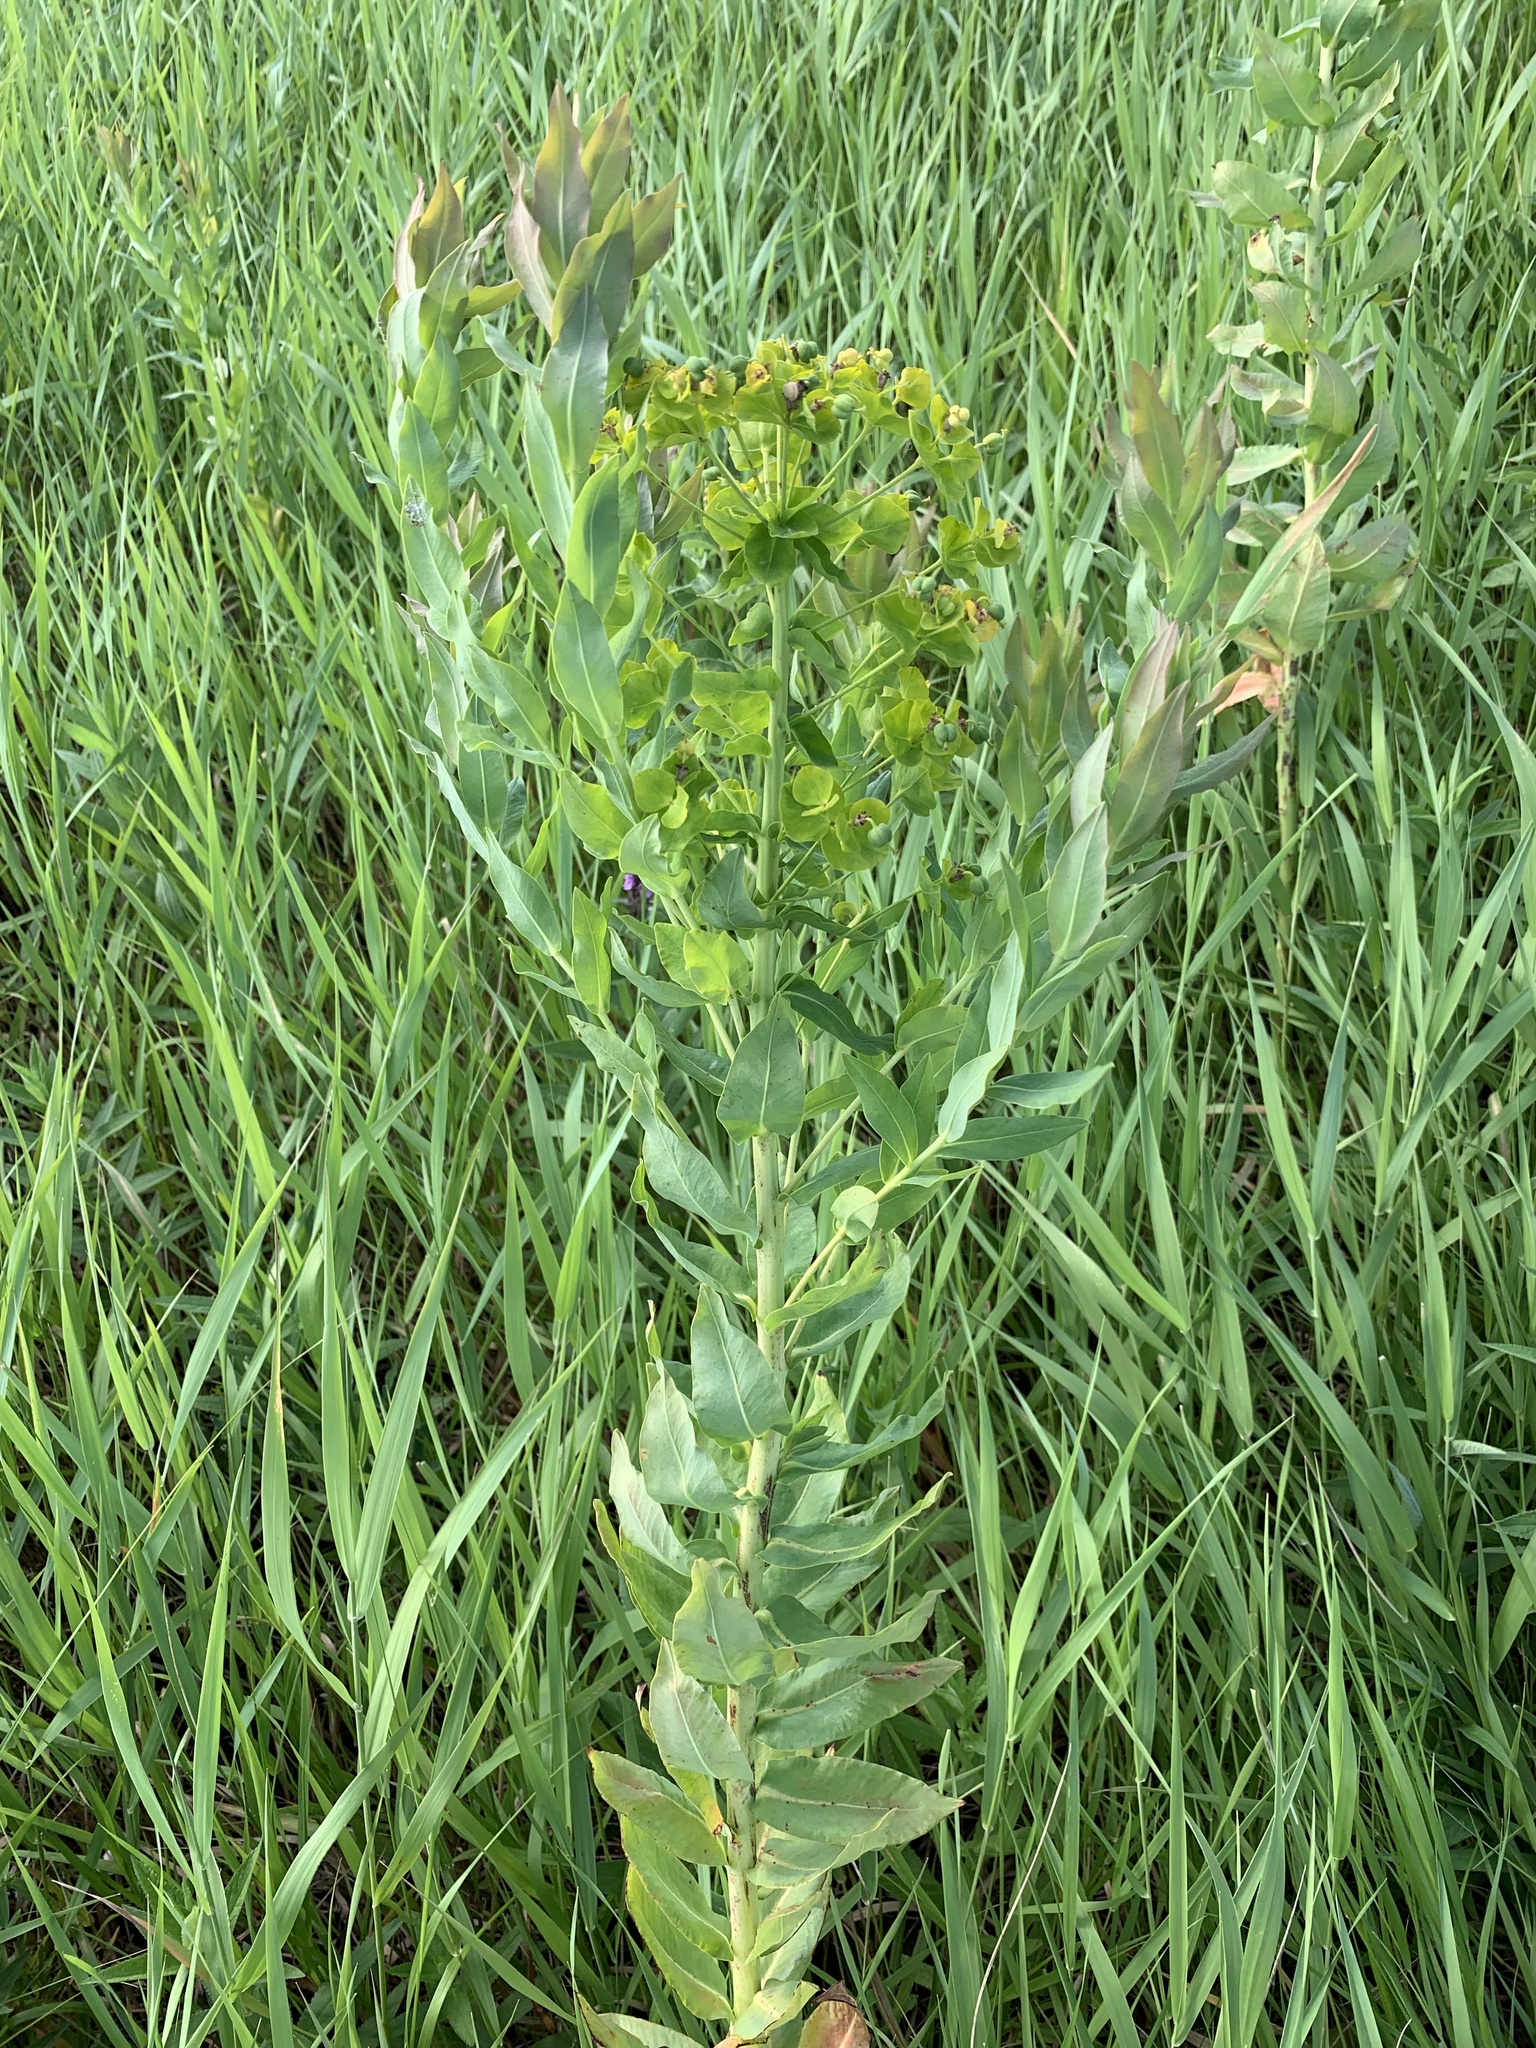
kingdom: Plantae
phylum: Tracheophyta
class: Magnoliopsida
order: Malpighiales
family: Euphorbiaceae
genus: Euphorbia
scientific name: Euphorbia lucida
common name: Shining spurge
